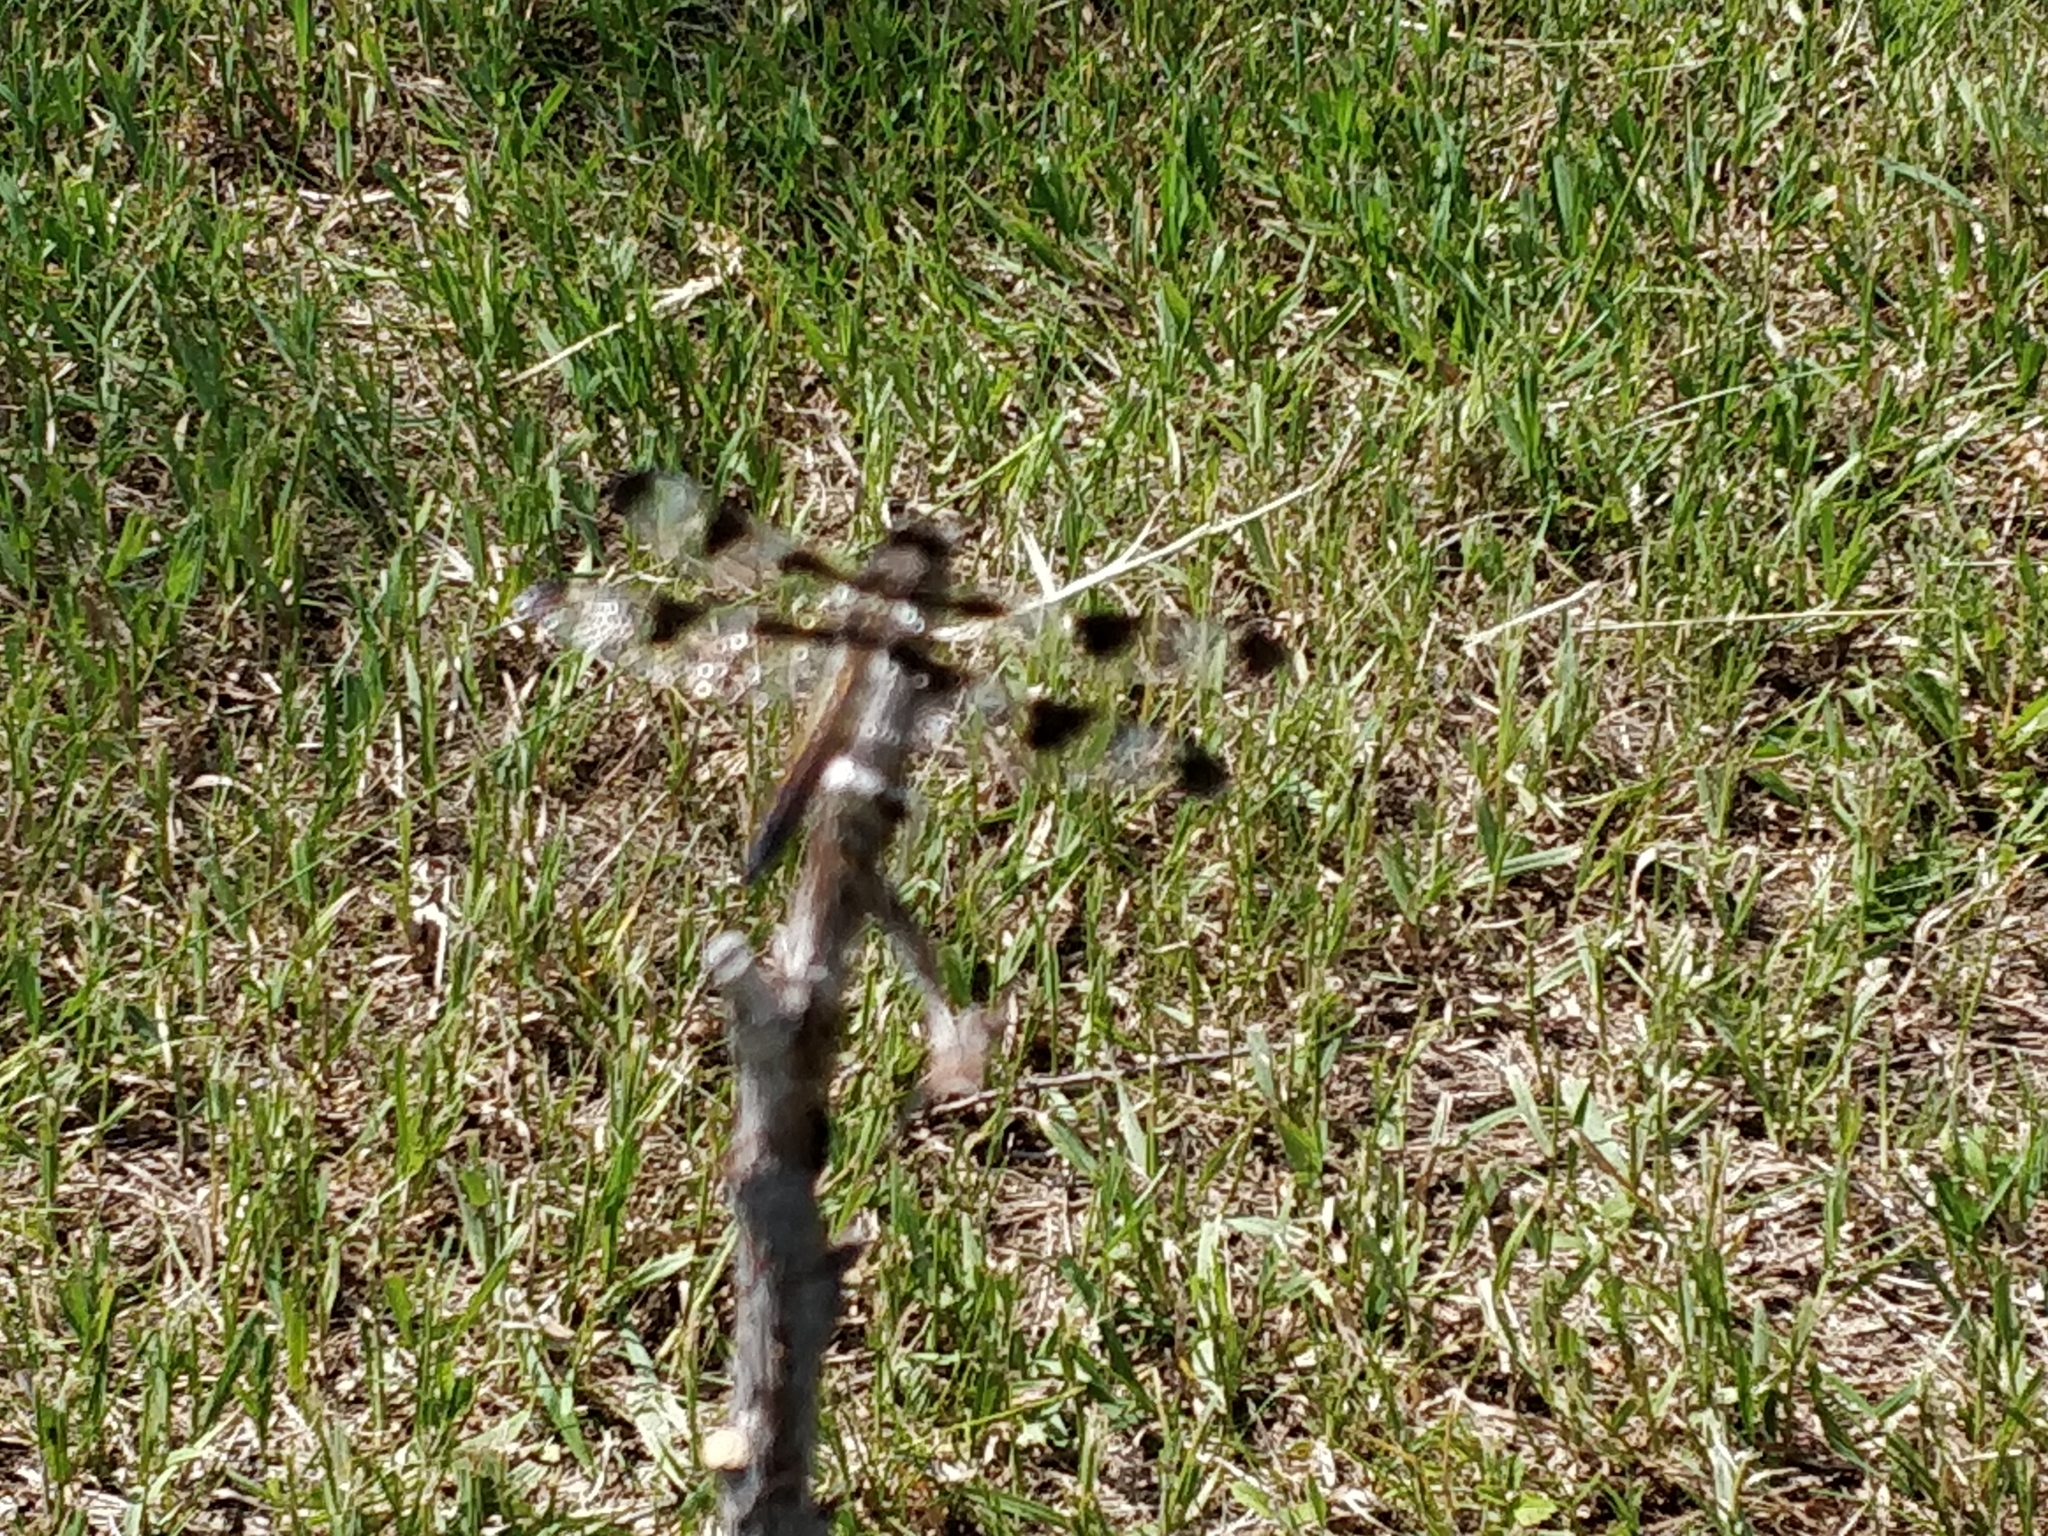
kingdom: Animalia
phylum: Arthropoda
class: Insecta
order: Odonata
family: Libellulidae
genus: Libellula
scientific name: Libellula pulchella
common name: Twelve-spotted skimmer
